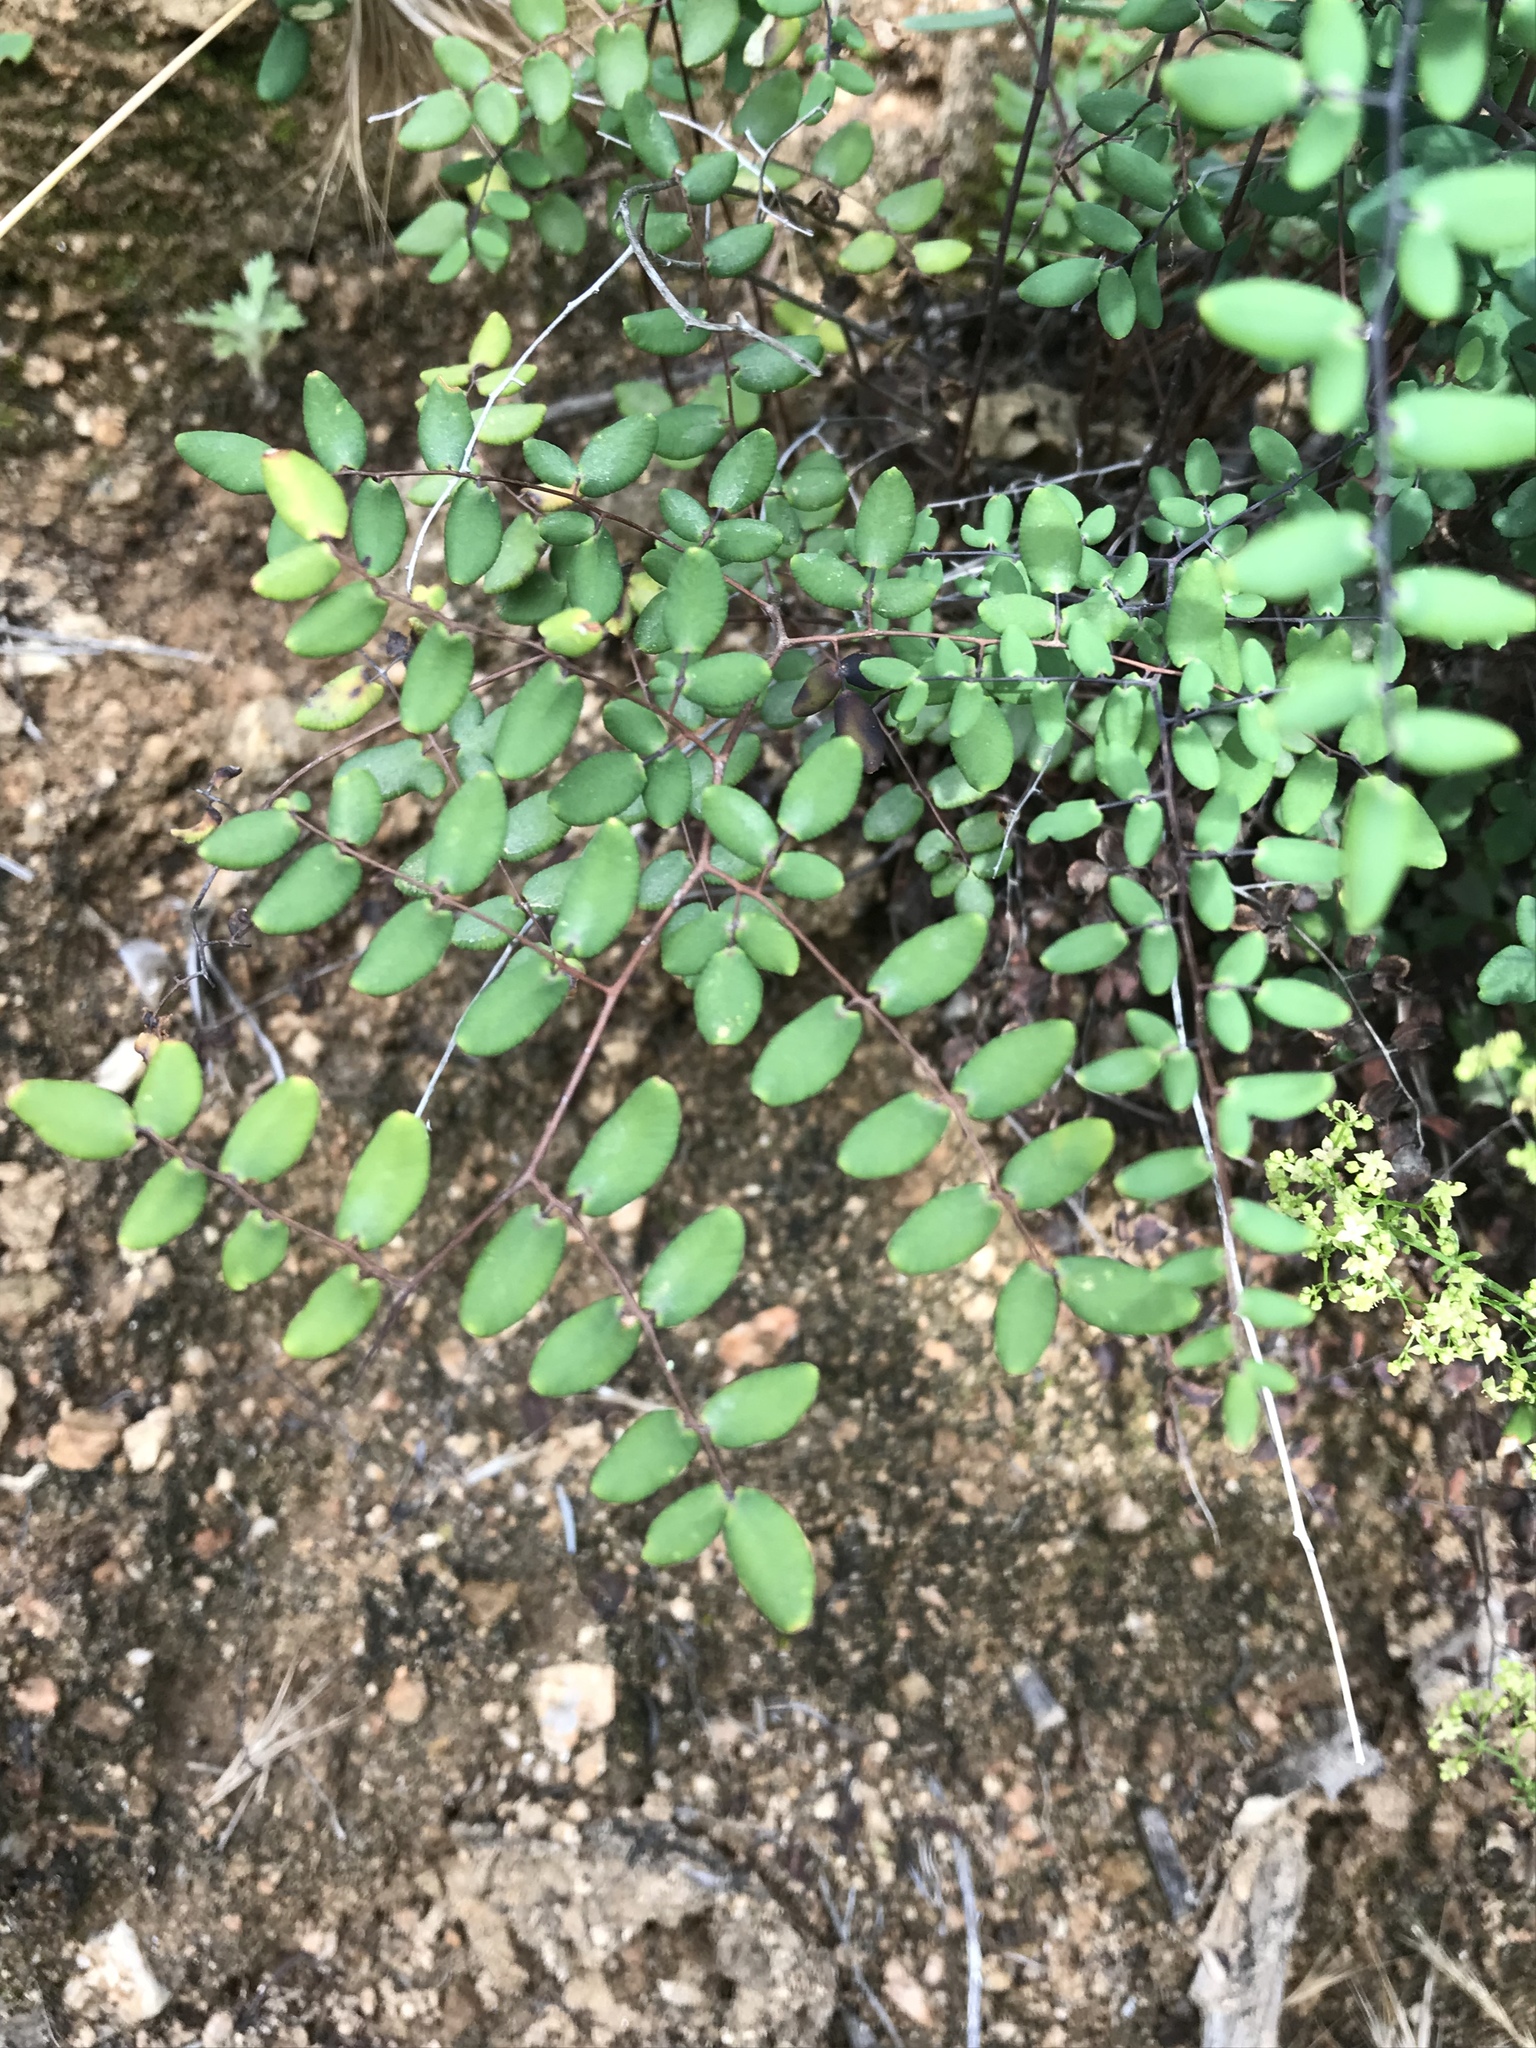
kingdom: Plantae
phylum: Tracheophyta
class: Polypodiopsida
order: Polypodiales
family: Pteridaceae
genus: Pellaea
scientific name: Pellaea andromedifolia
